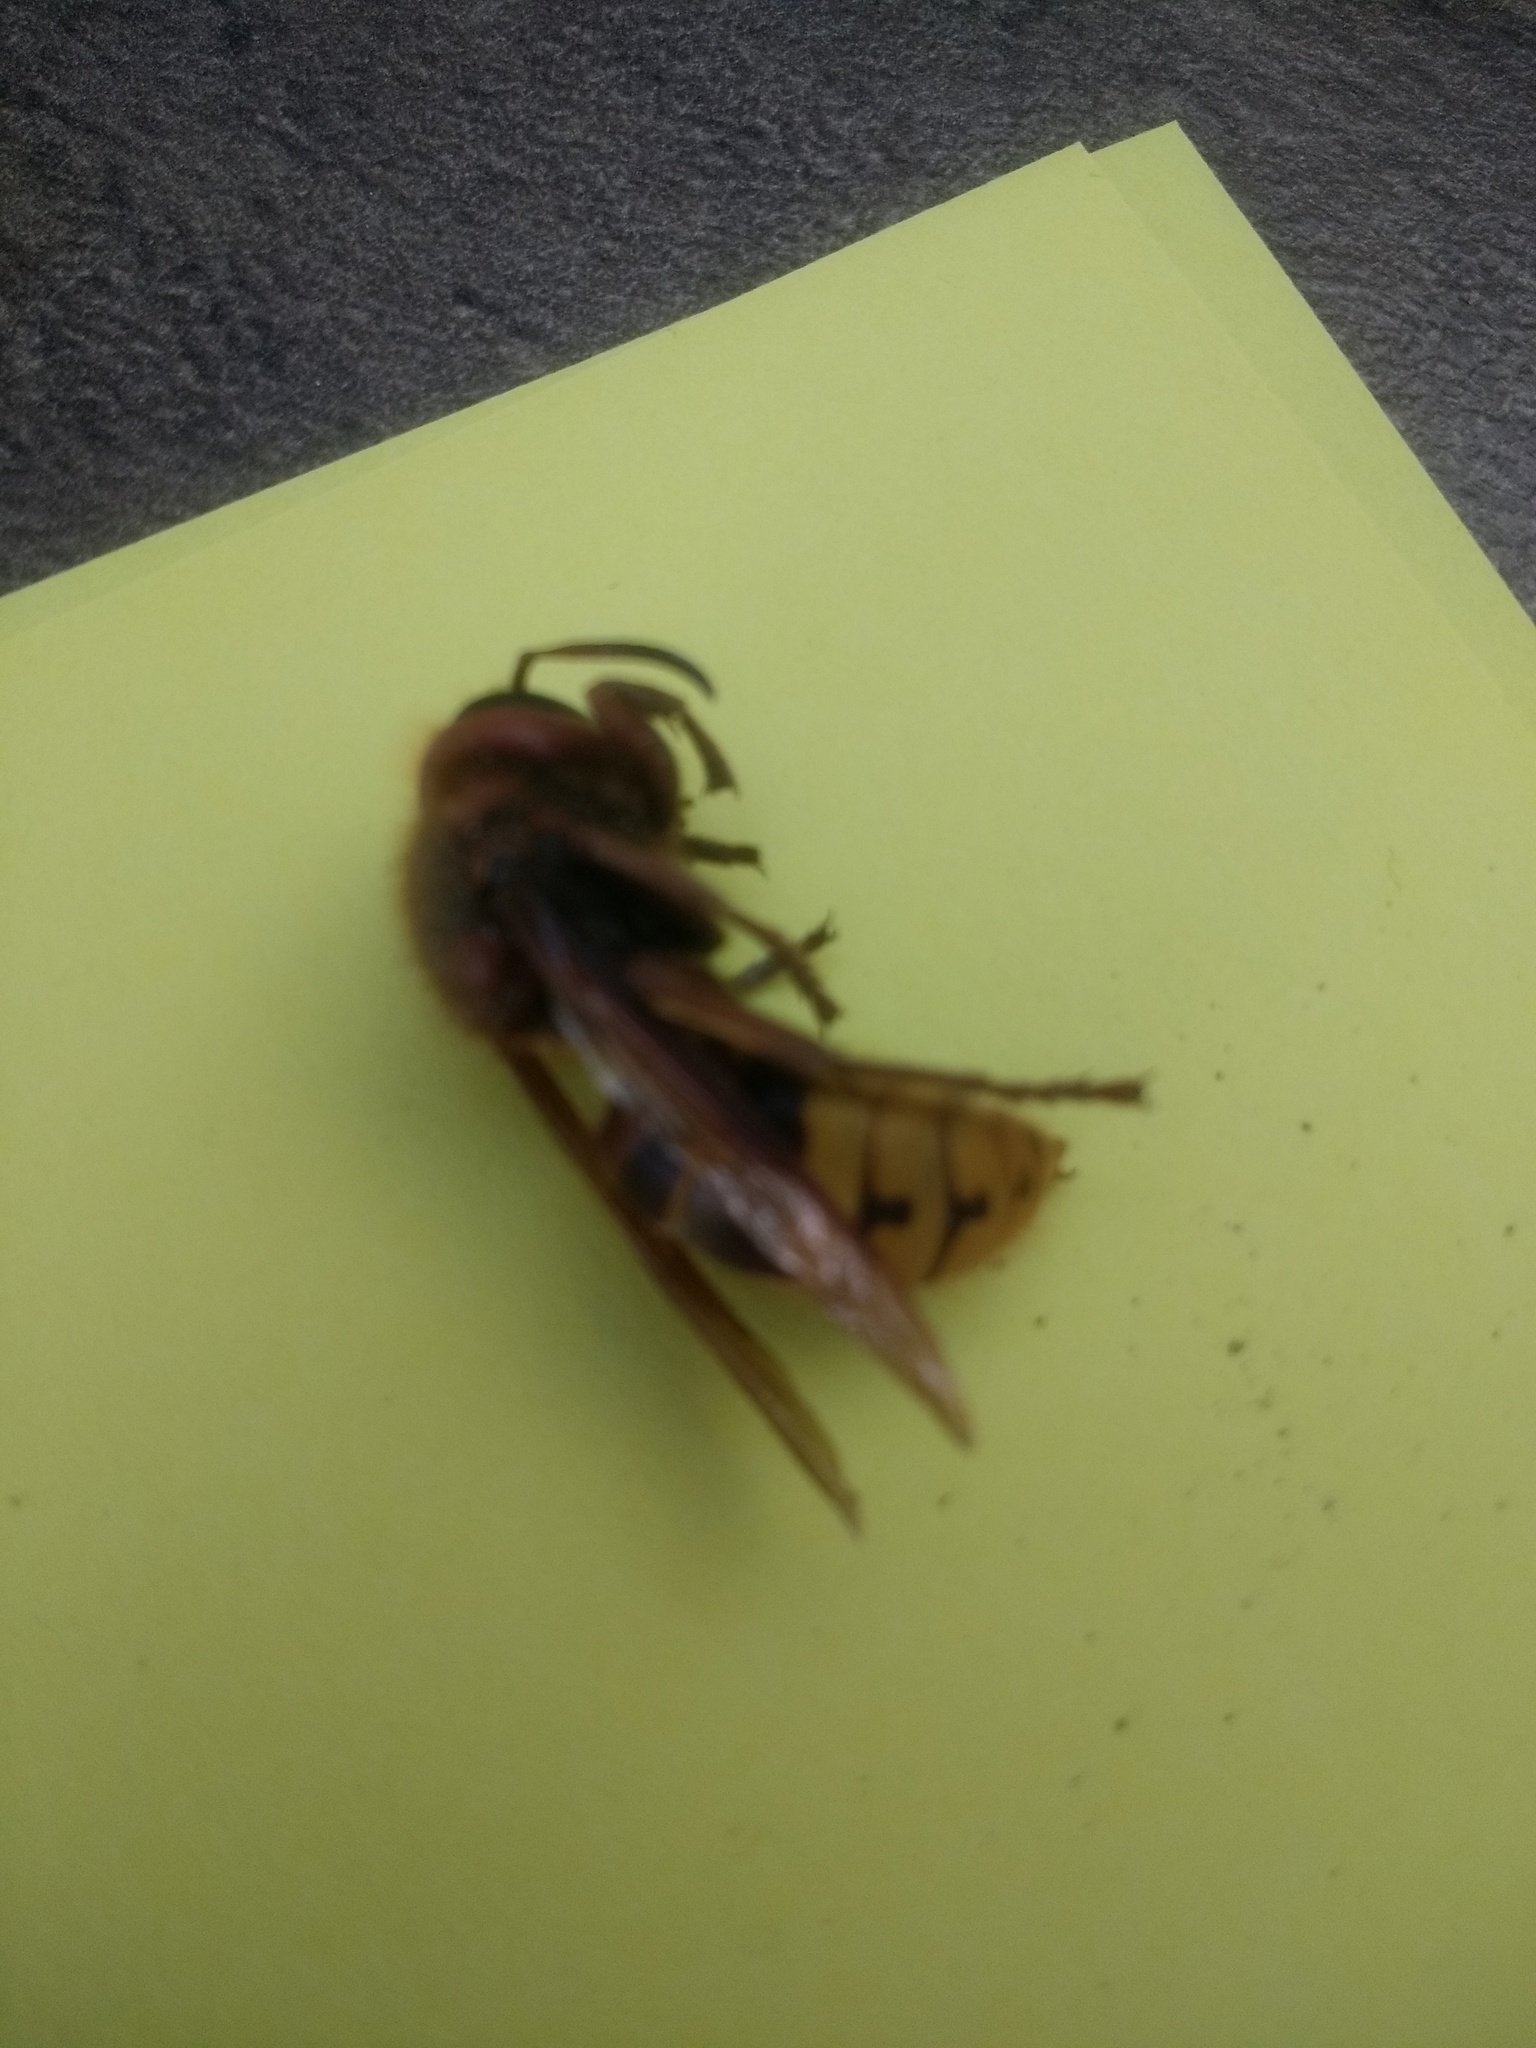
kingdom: Animalia
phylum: Arthropoda
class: Insecta
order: Hymenoptera
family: Vespidae
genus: Vespa
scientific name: Vespa crabro
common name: Hornet
